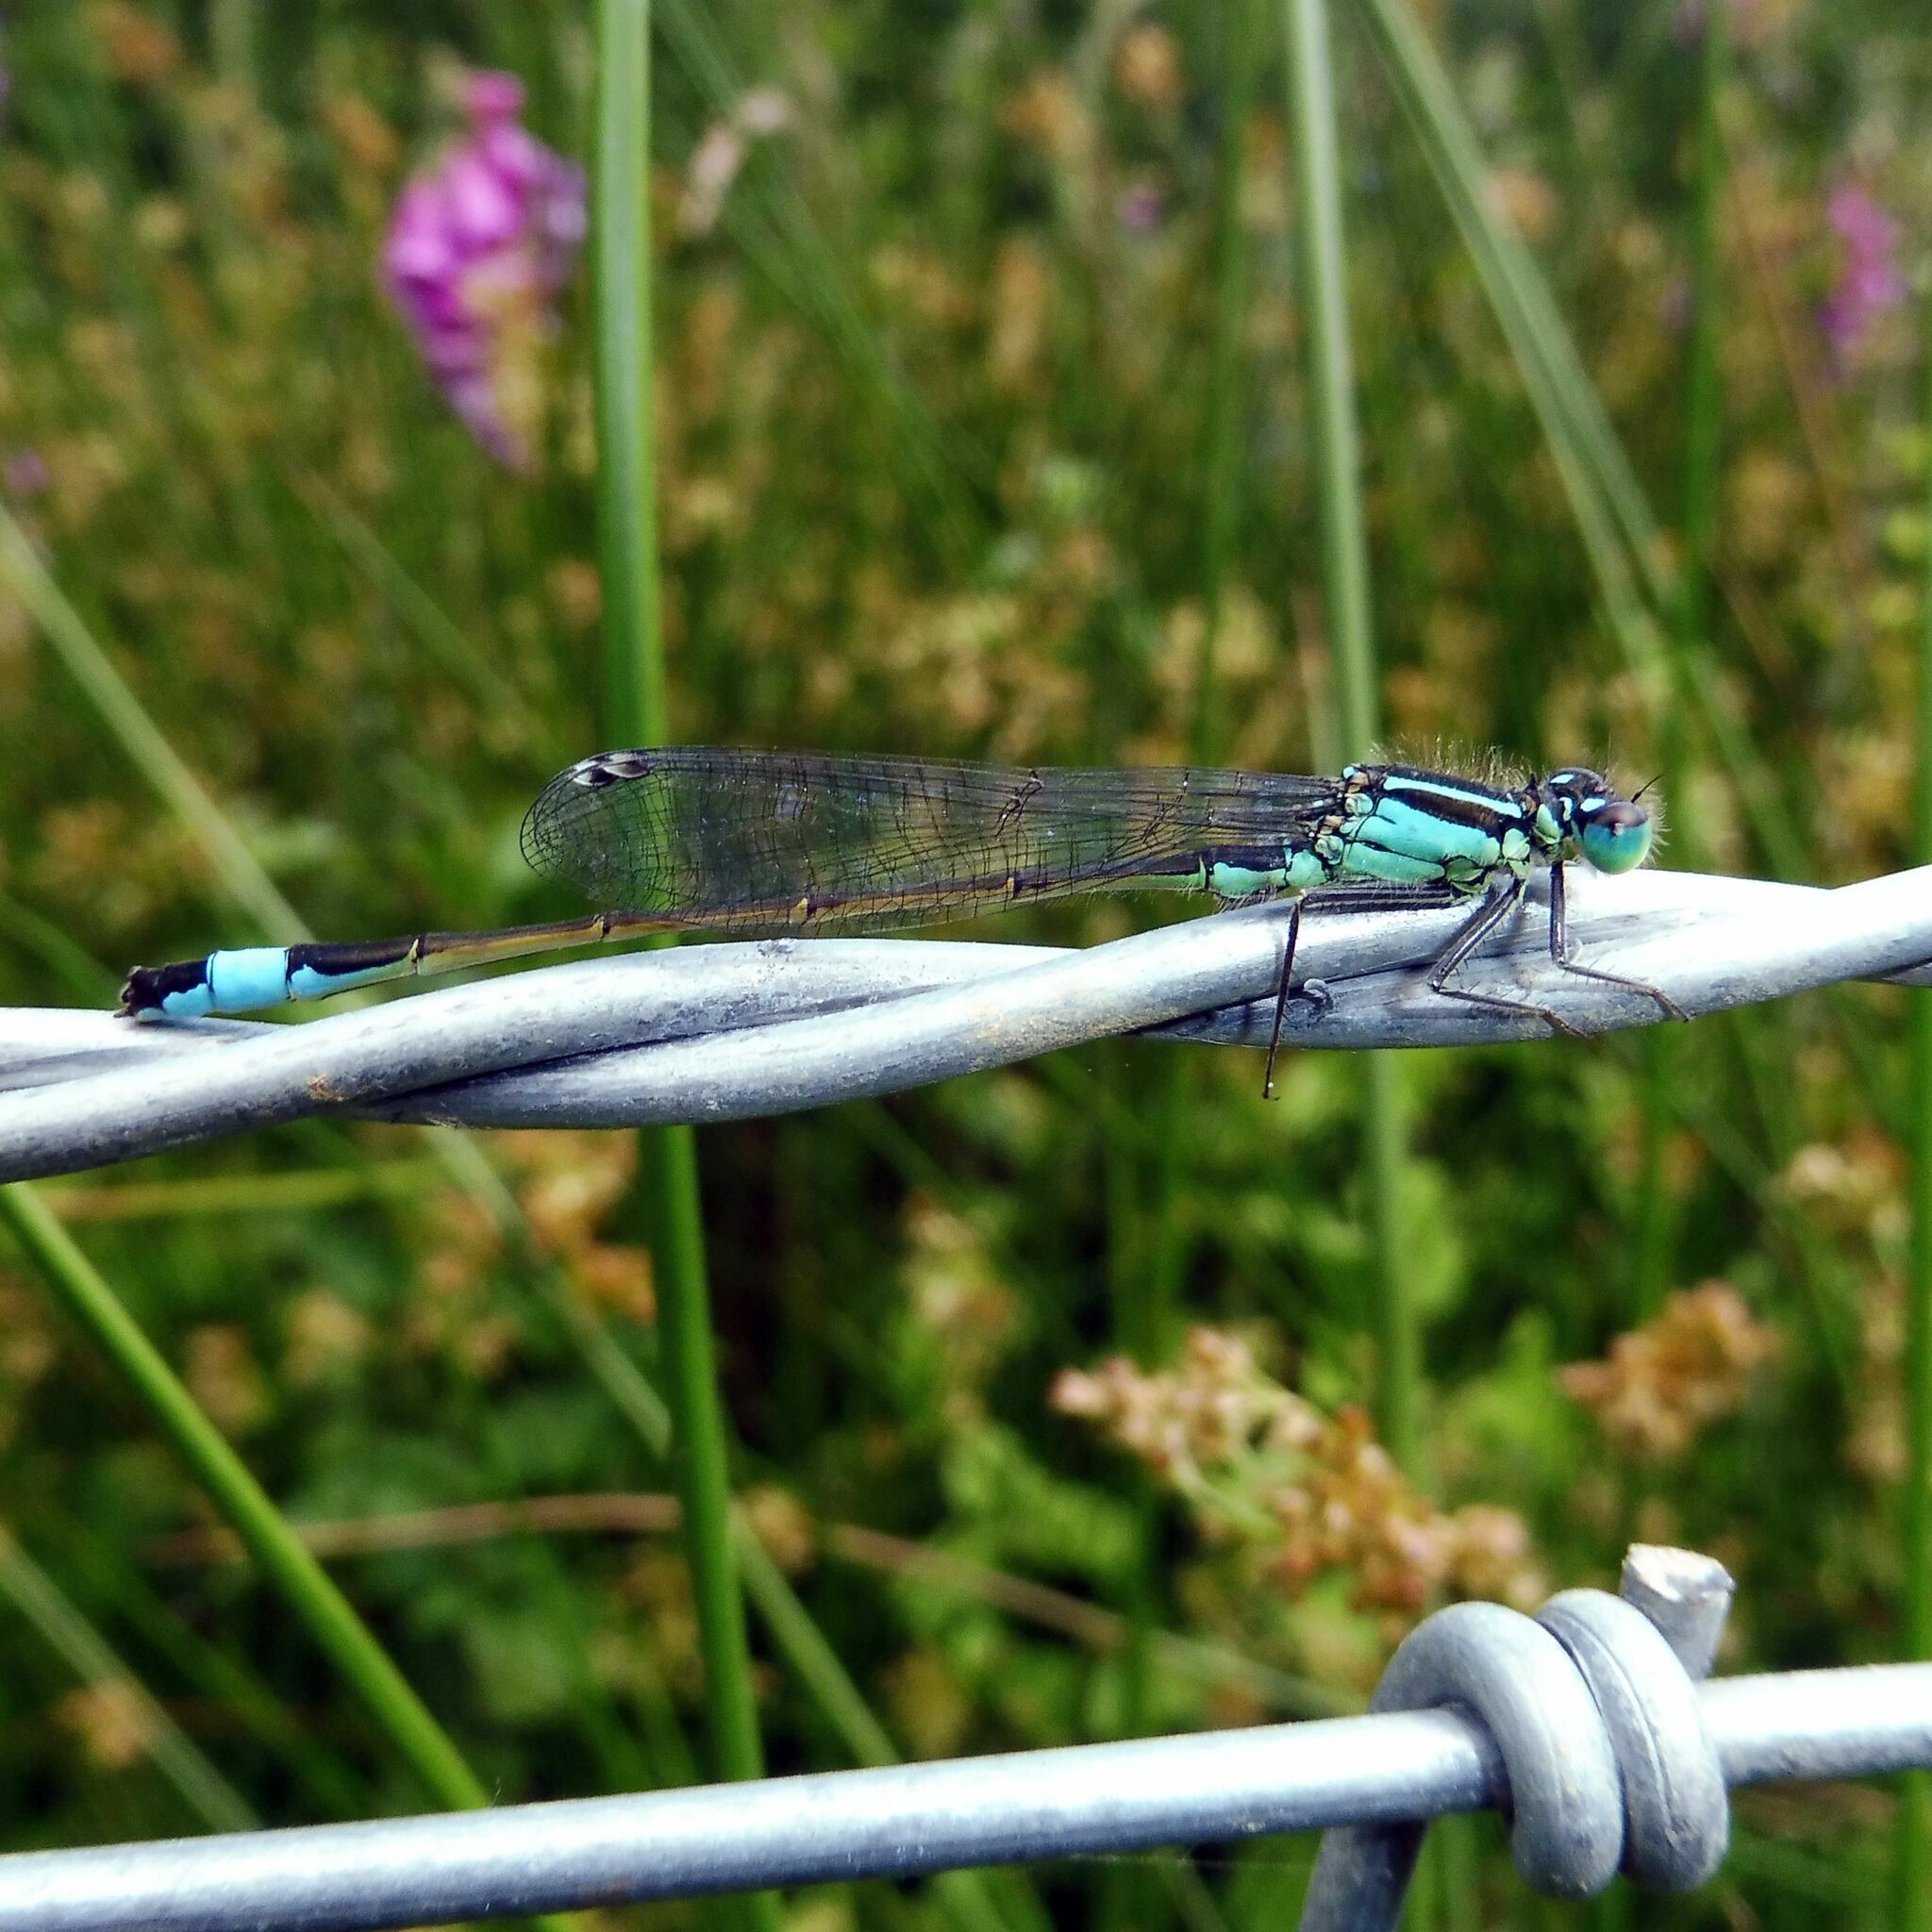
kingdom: Animalia
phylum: Arthropoda
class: Insecta
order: Odonata
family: Coenagrionidae
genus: Ischnura
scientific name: Ischnura elegans
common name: Blue-tailed damselfly
